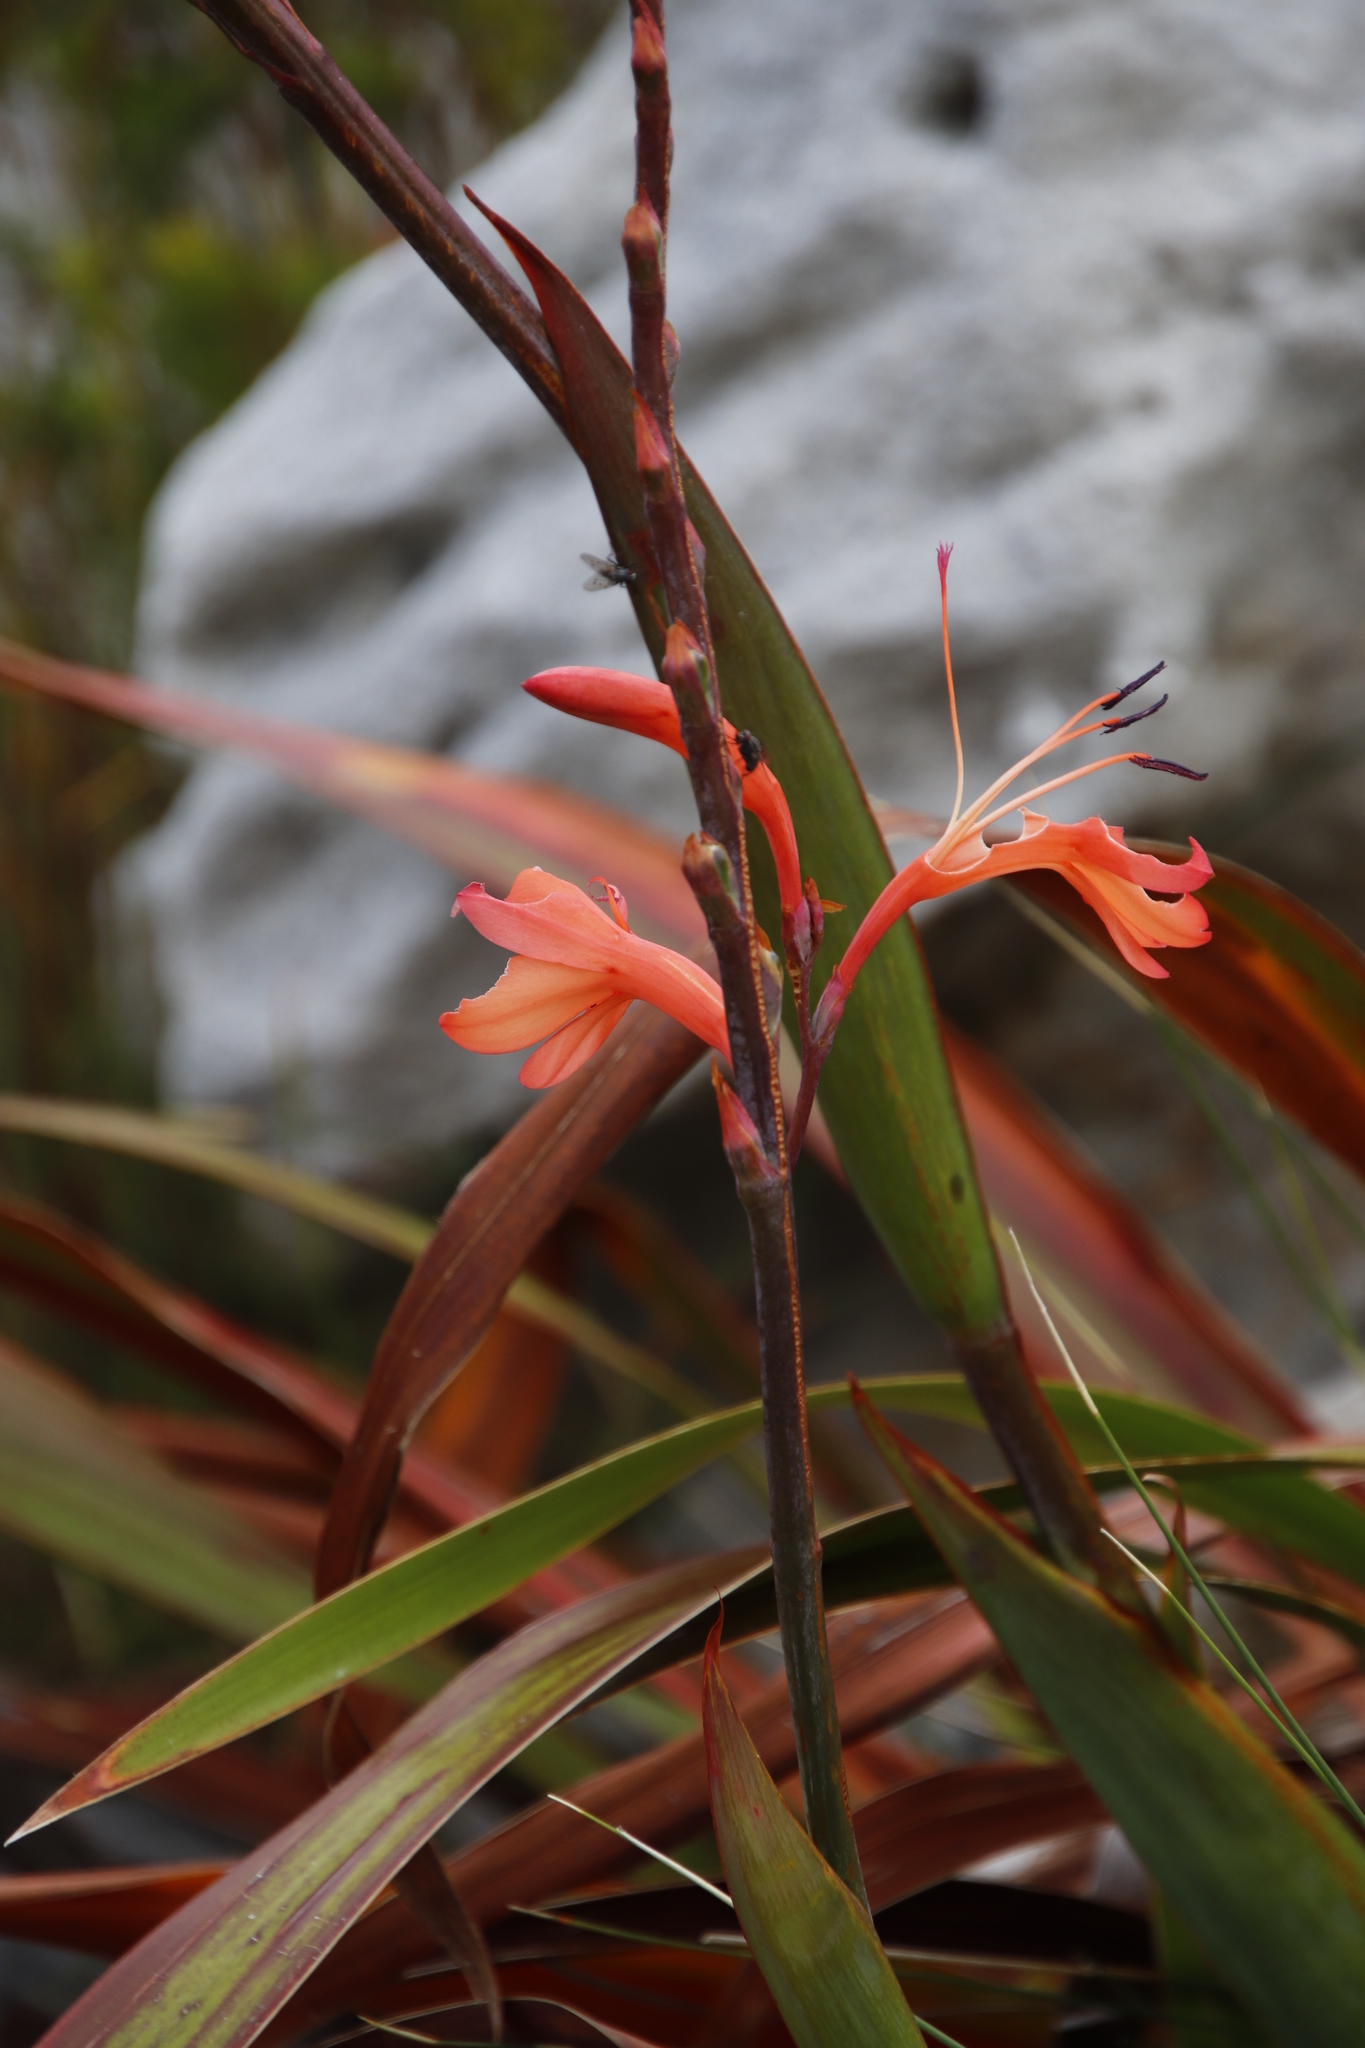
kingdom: Plantae
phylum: Tracheophyta
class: Liliopsida
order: Asparagales
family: Iridaceae
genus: Watsonia
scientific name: Watsonia tabularis
